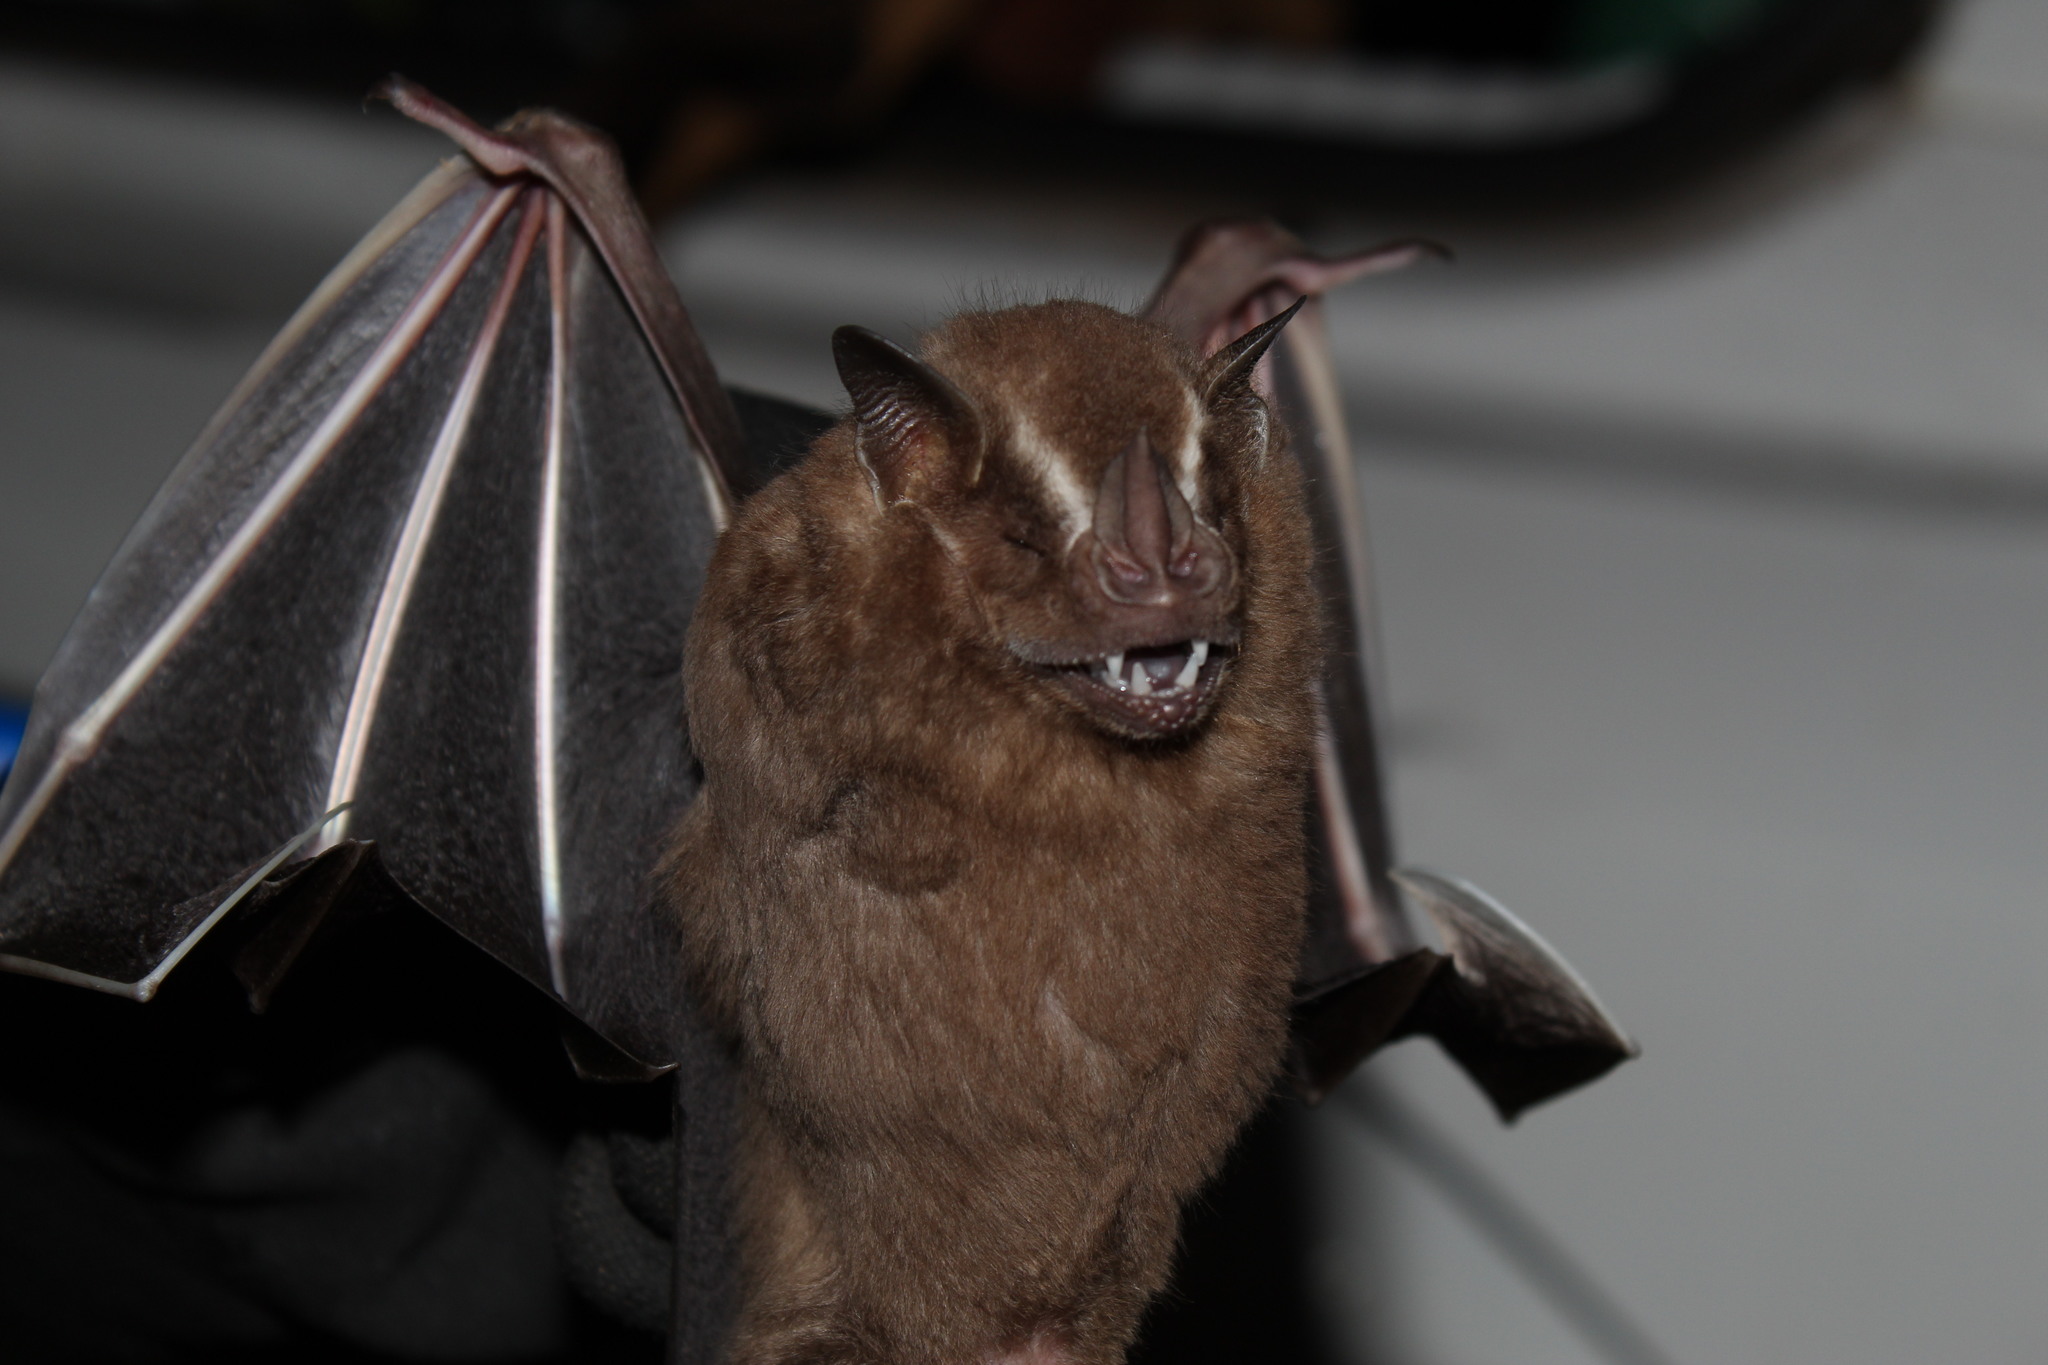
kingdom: Animalia
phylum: Chordata
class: Mammalia
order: Chiroptera
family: Phyllostomidae
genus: Artibeus
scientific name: Artibeus lituratus
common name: Great fruit-eating bat
